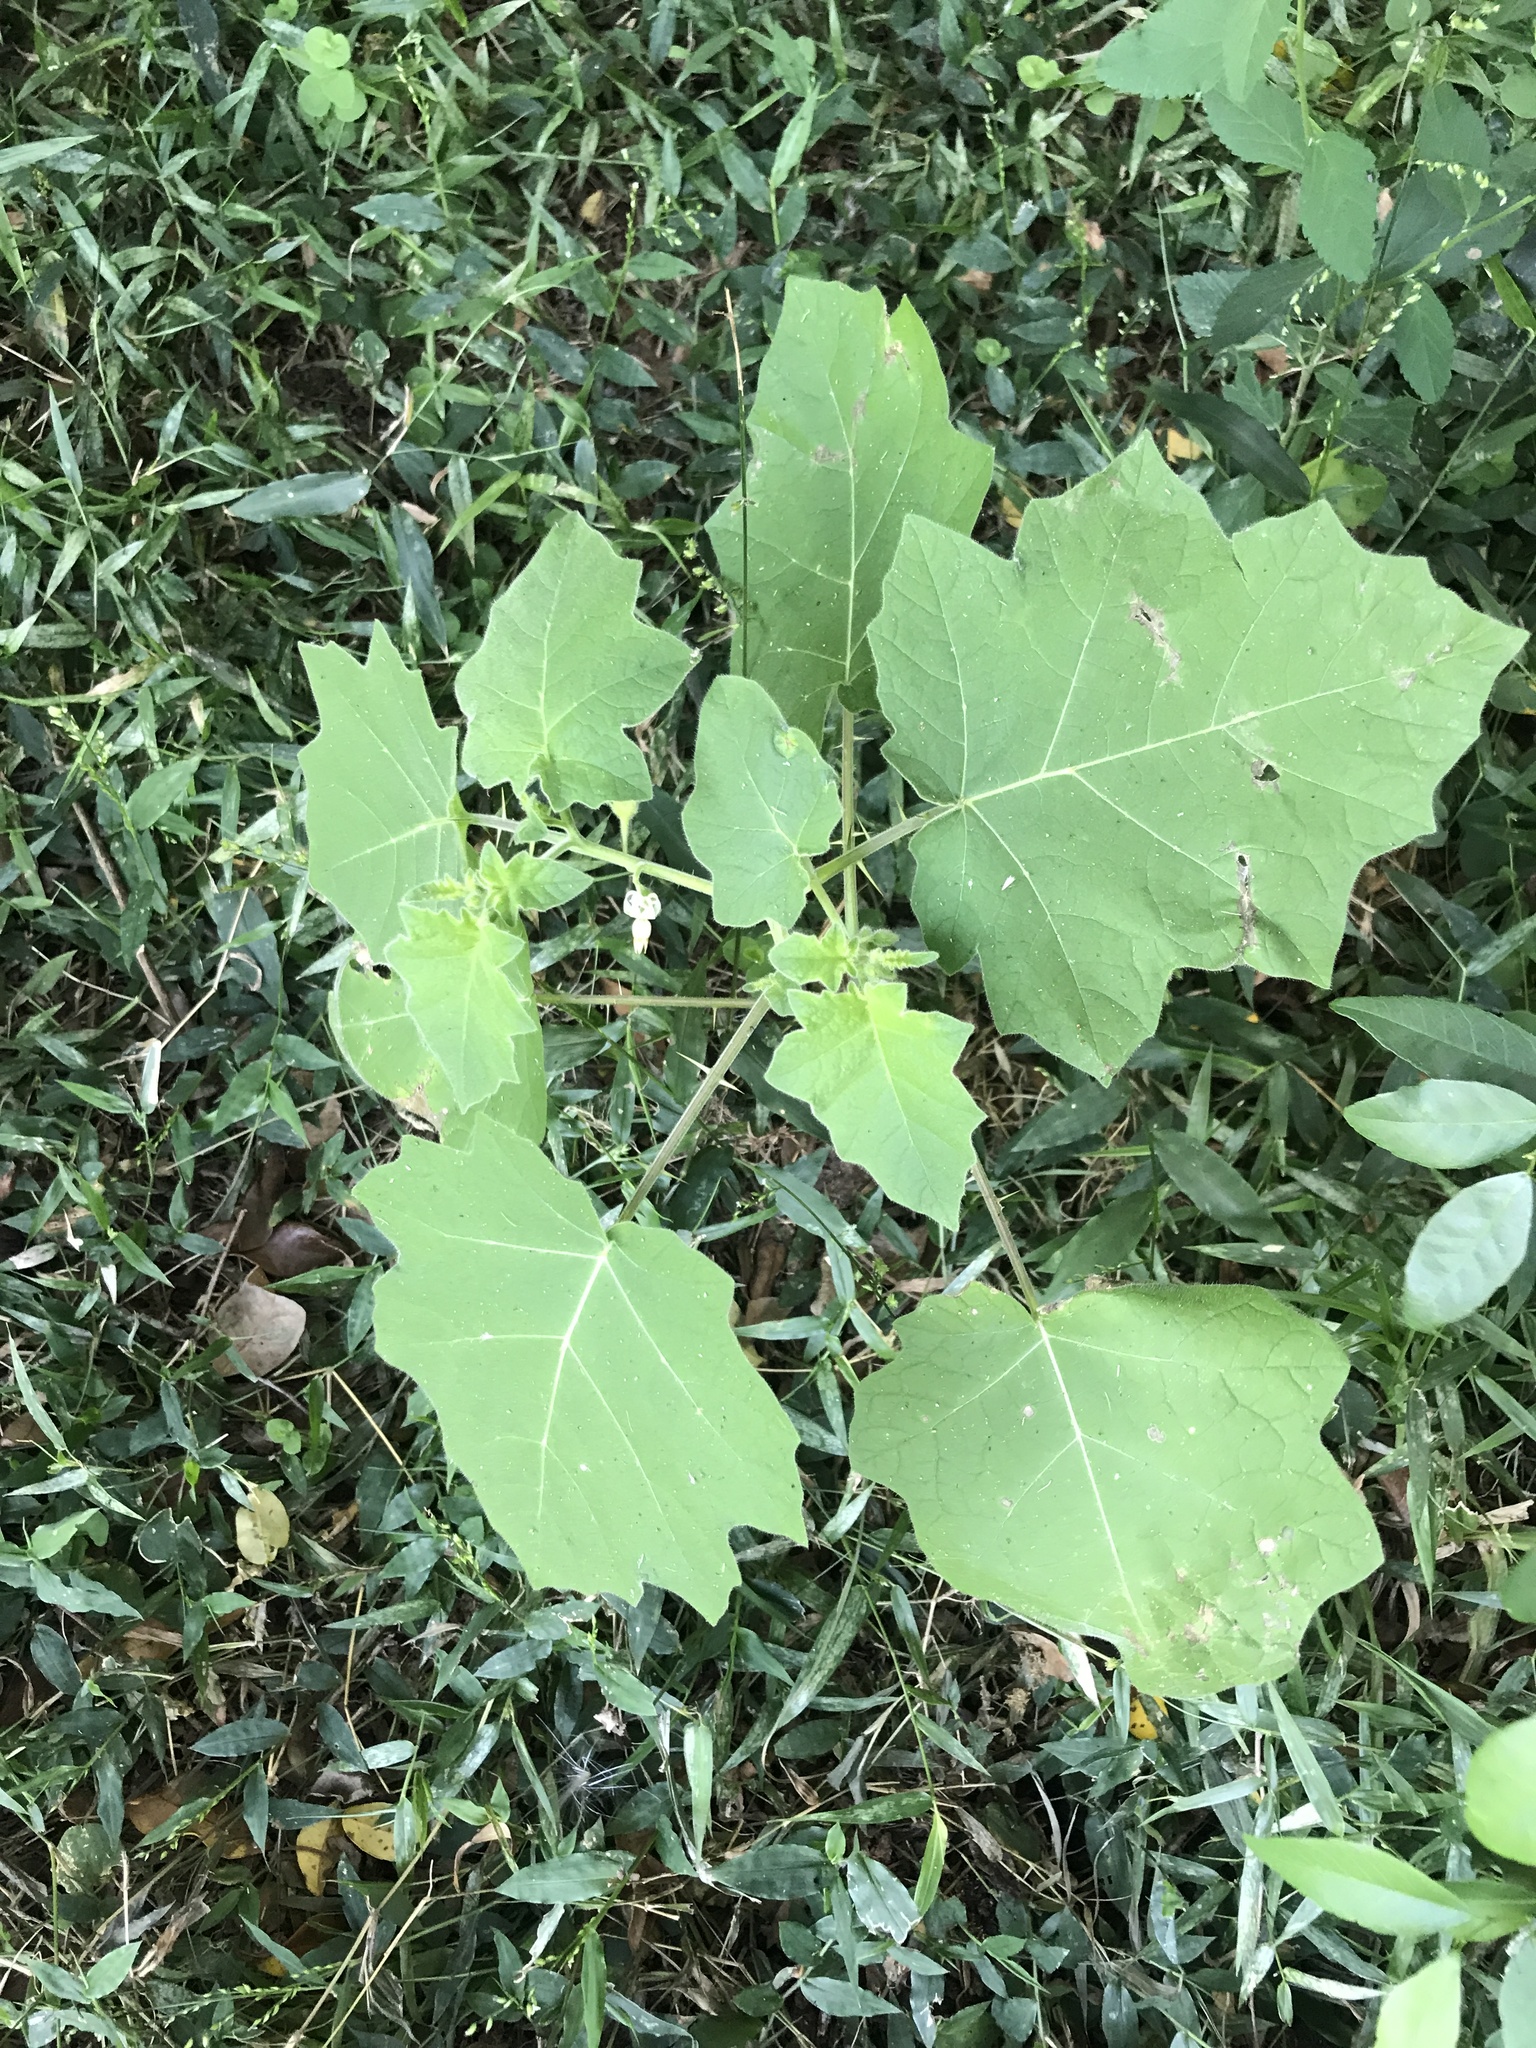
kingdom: Plantae
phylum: Tracheophyta
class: Magnoliopsida
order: Solanales
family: Solanaceae
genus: Solanum
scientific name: Solanum viarum
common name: Tropical soda apple
